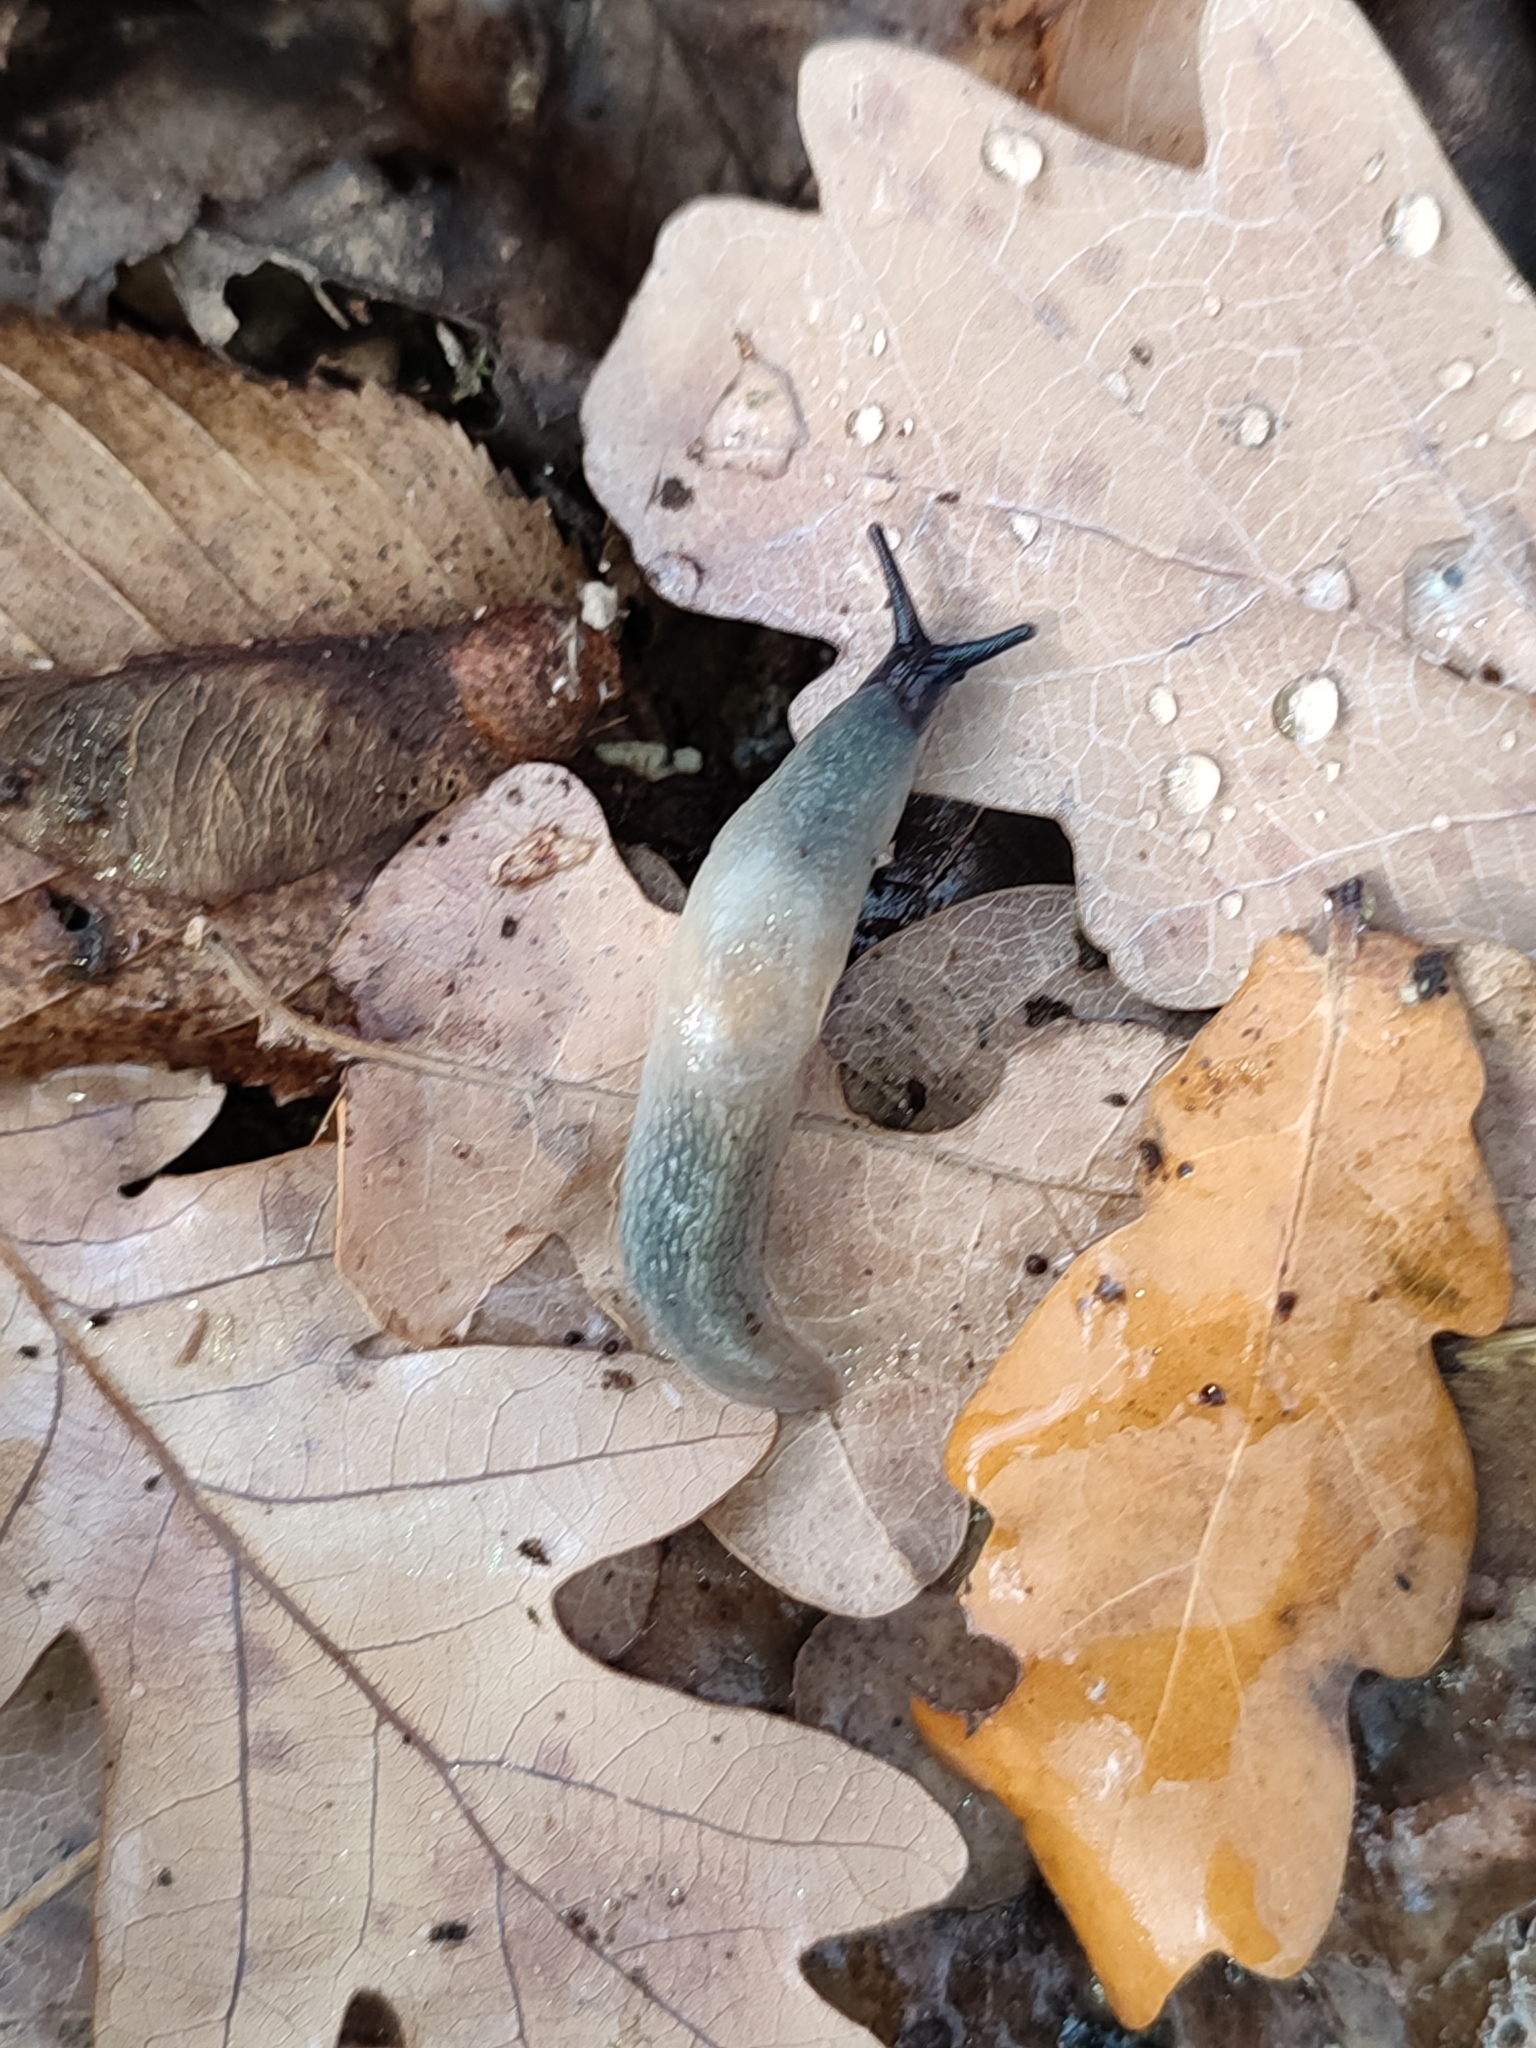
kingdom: Animalia
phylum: Mollusca
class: Gastropoda
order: Stylommatophora
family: Agriolimacidae
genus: Krynickillus
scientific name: Krynickillus melanocephalus
